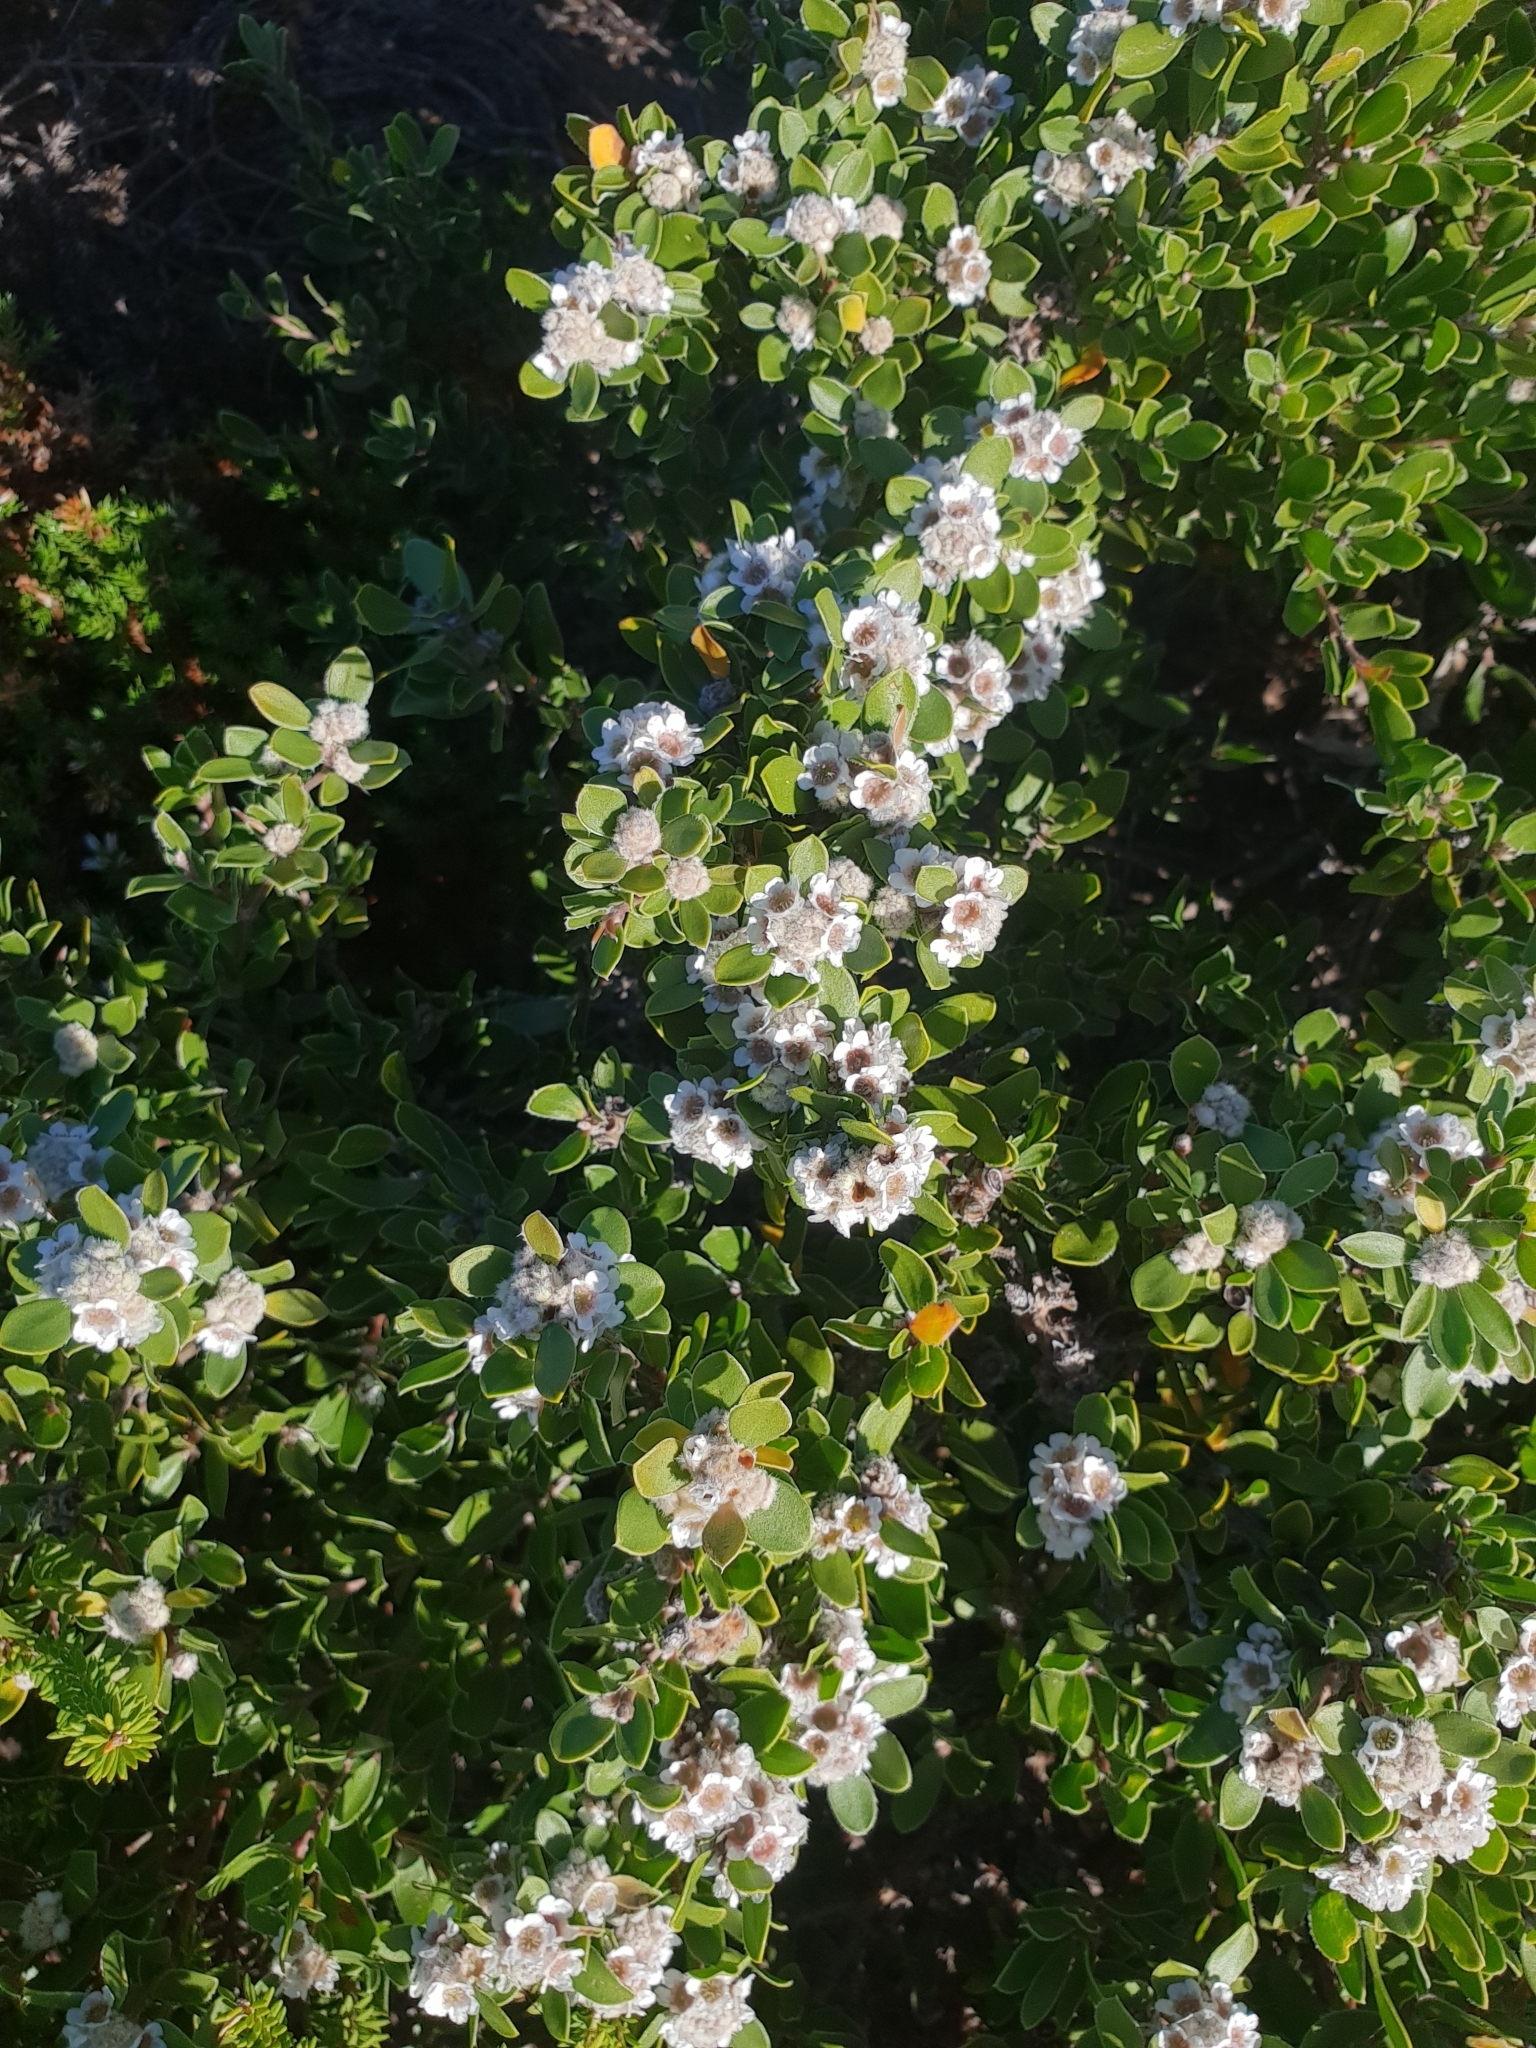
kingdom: Plantae
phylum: Tracheophyta
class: Magnoliopsida
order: Myrtales
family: Myrtaceae
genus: Taxandria
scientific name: Taxandria marginata
